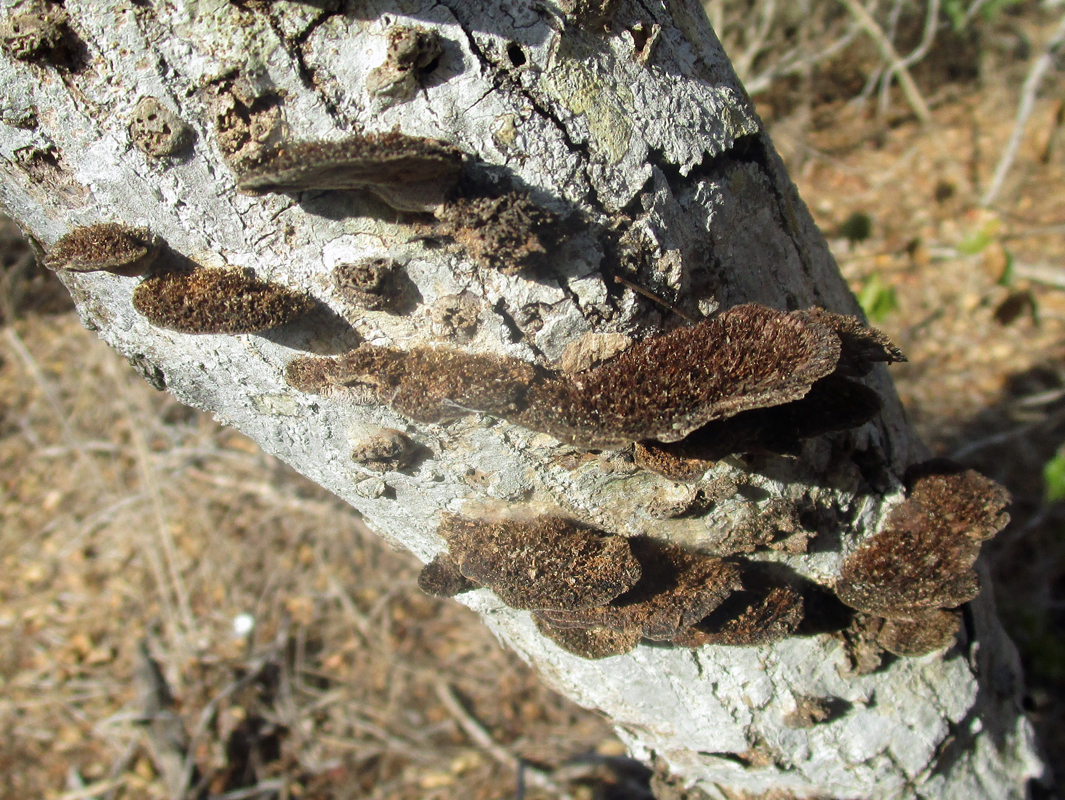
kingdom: Fungi
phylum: Basidiomycota
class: Agaricomycetes
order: Polyporales
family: Cerrenaceae
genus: Cerrena
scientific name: Cerrena hydnoides
